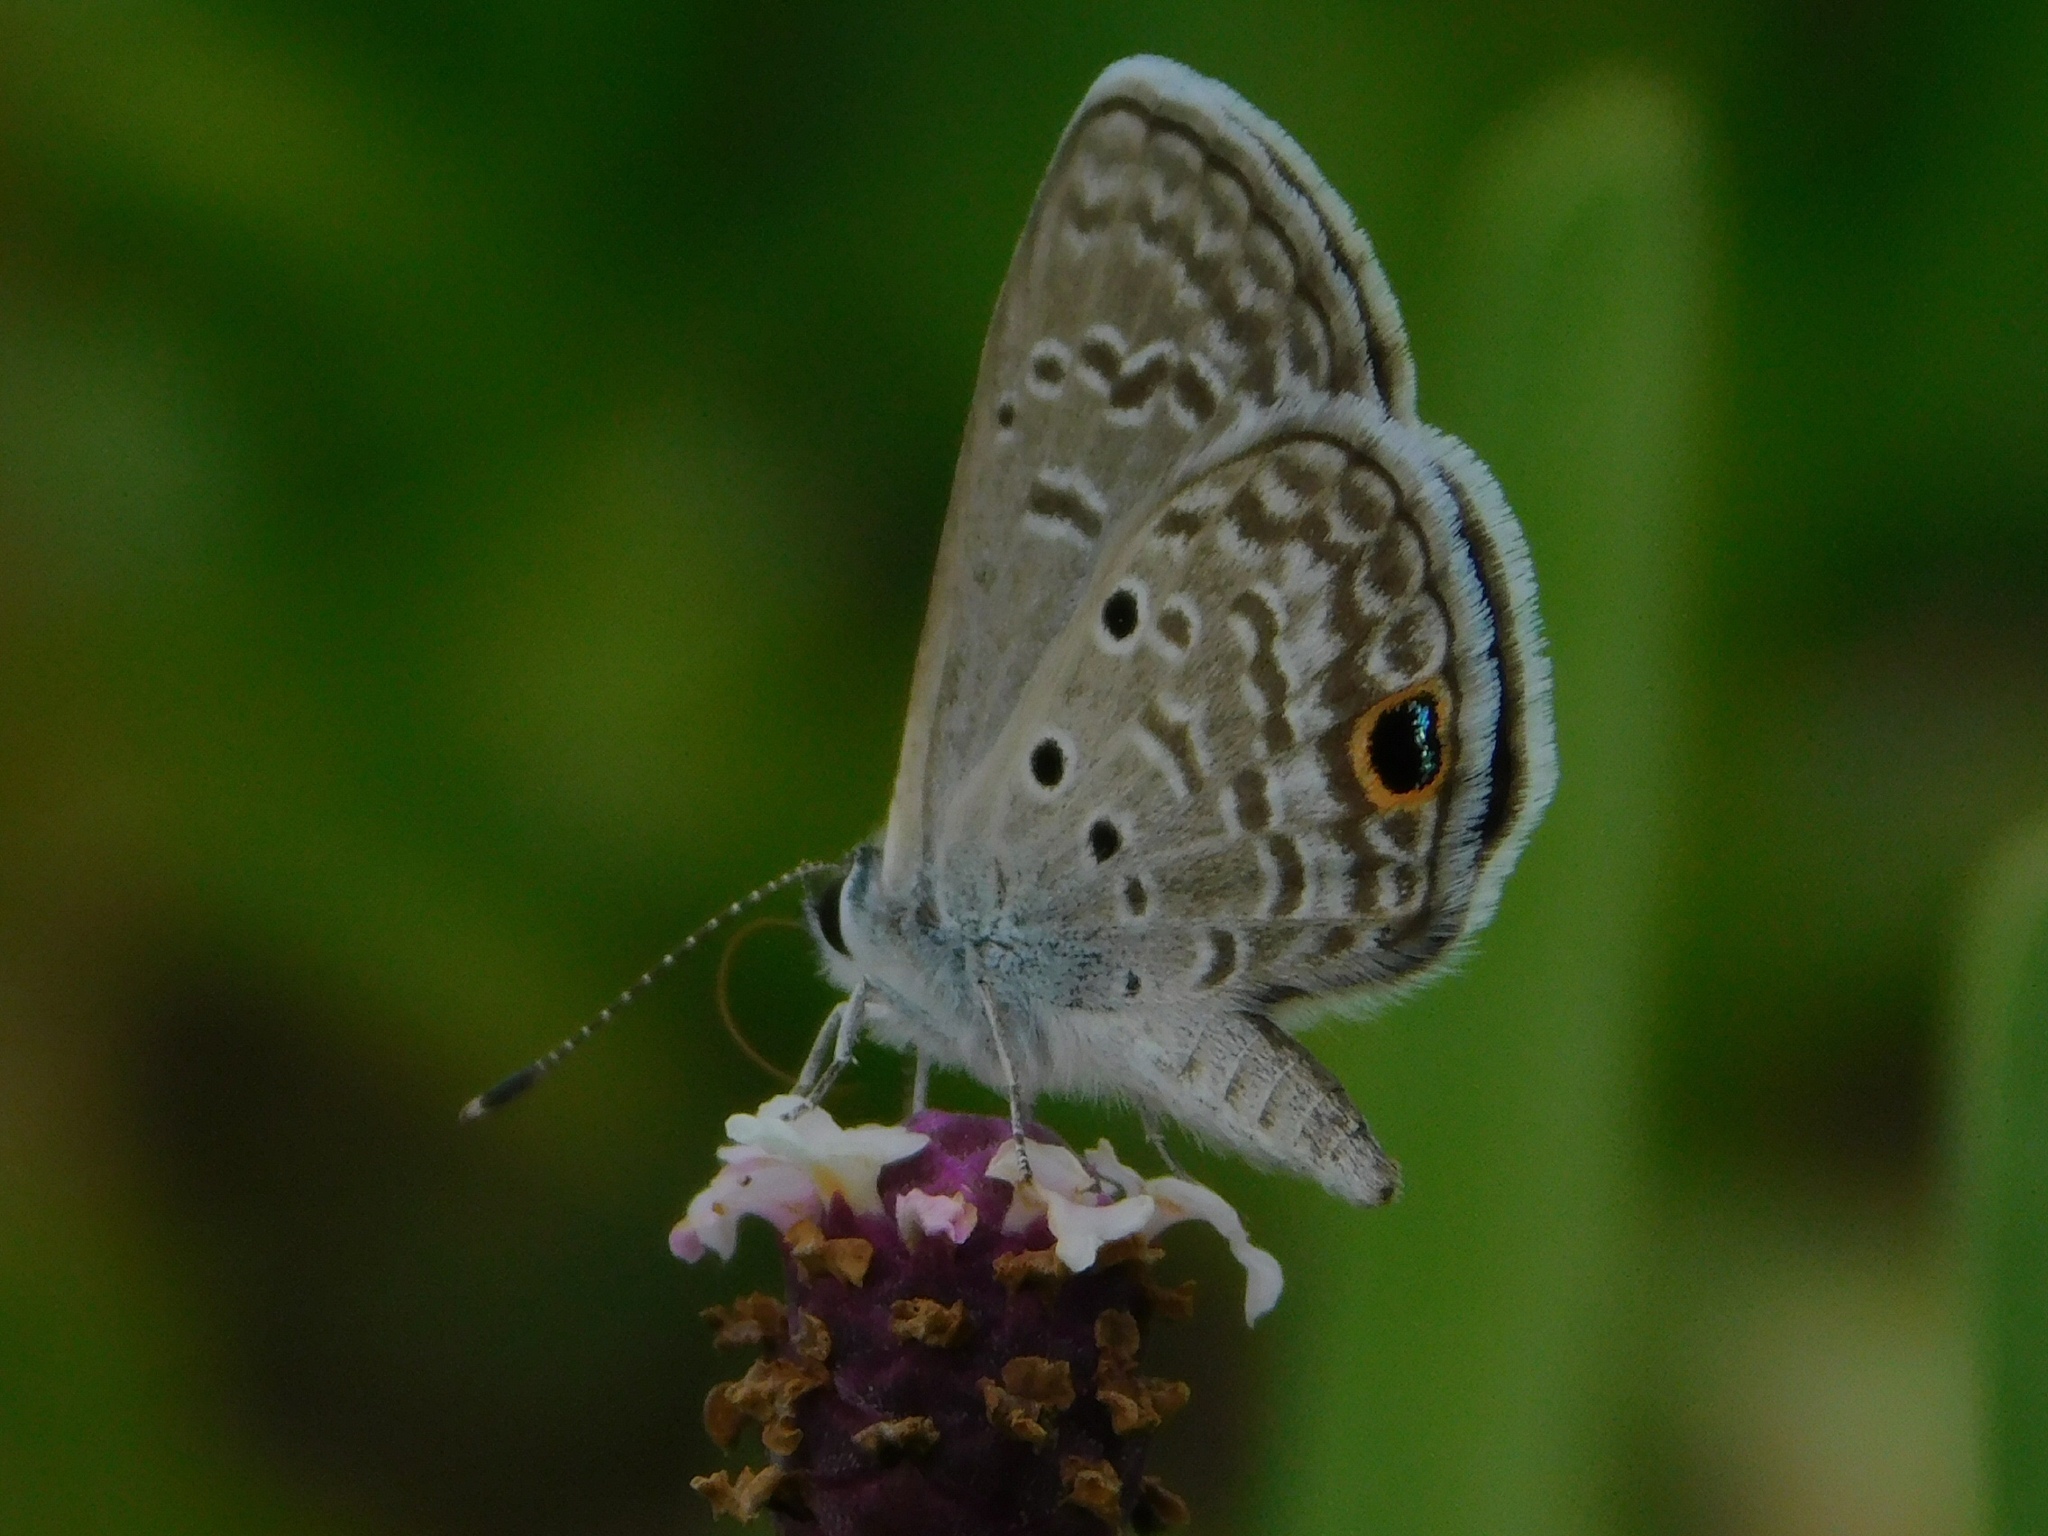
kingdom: Animalia
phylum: Arthropoda
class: Insecta
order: Lepidoptera
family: Lycaenidae
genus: Hemiargus
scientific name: Hemiargus ceraunus
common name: Ceraunus blue
